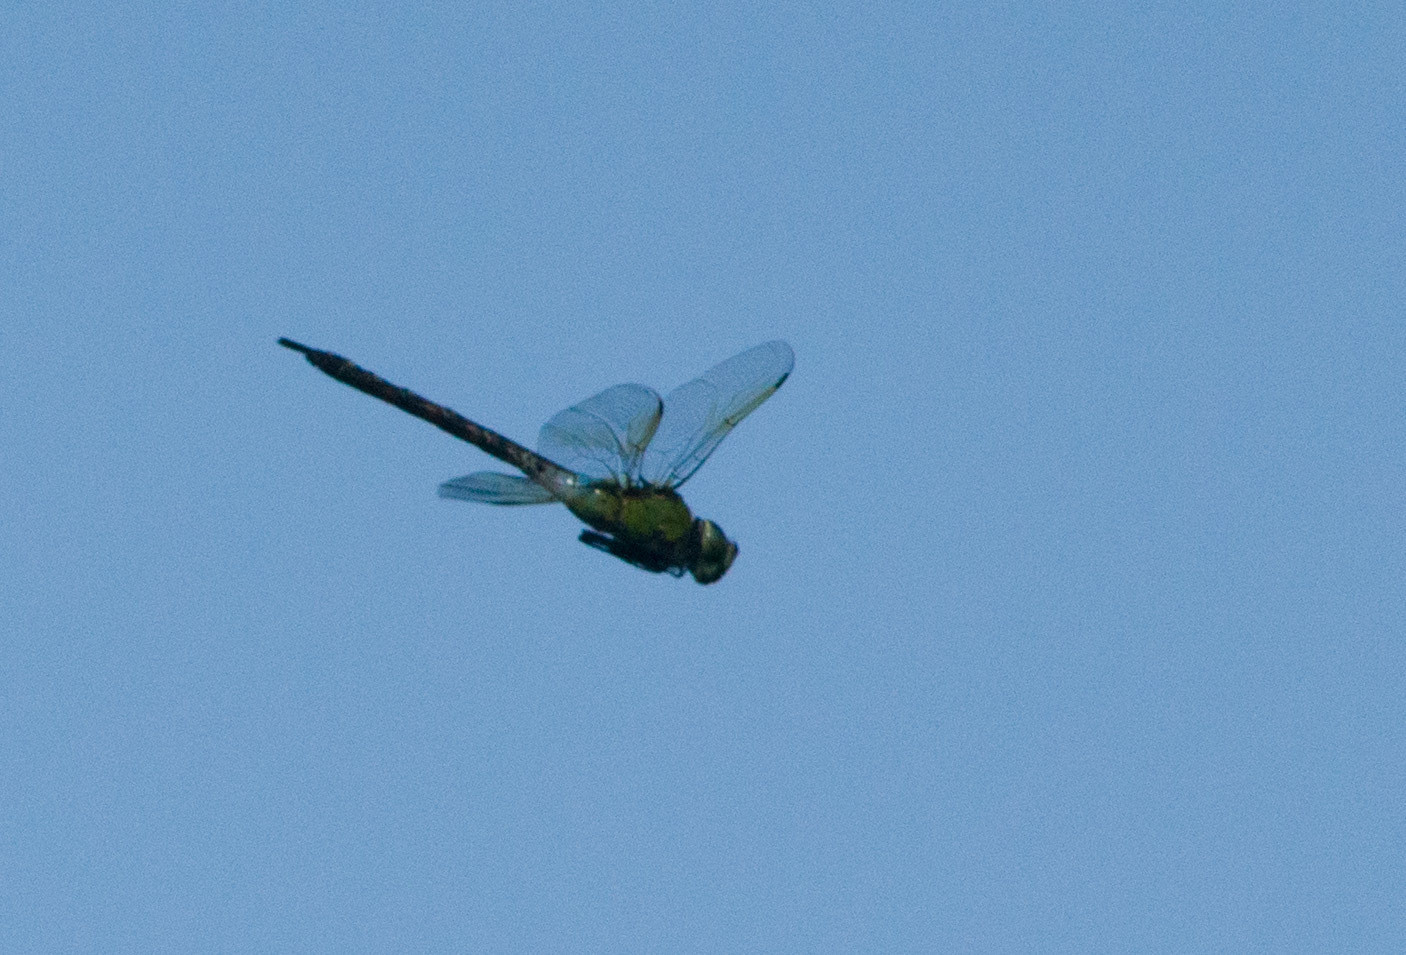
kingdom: Animalia
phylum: Arthropoda
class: Insecta
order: Odonata
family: Aeshnidae
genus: Anax
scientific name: Anax strenuus
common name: Giant hawaiian darner
